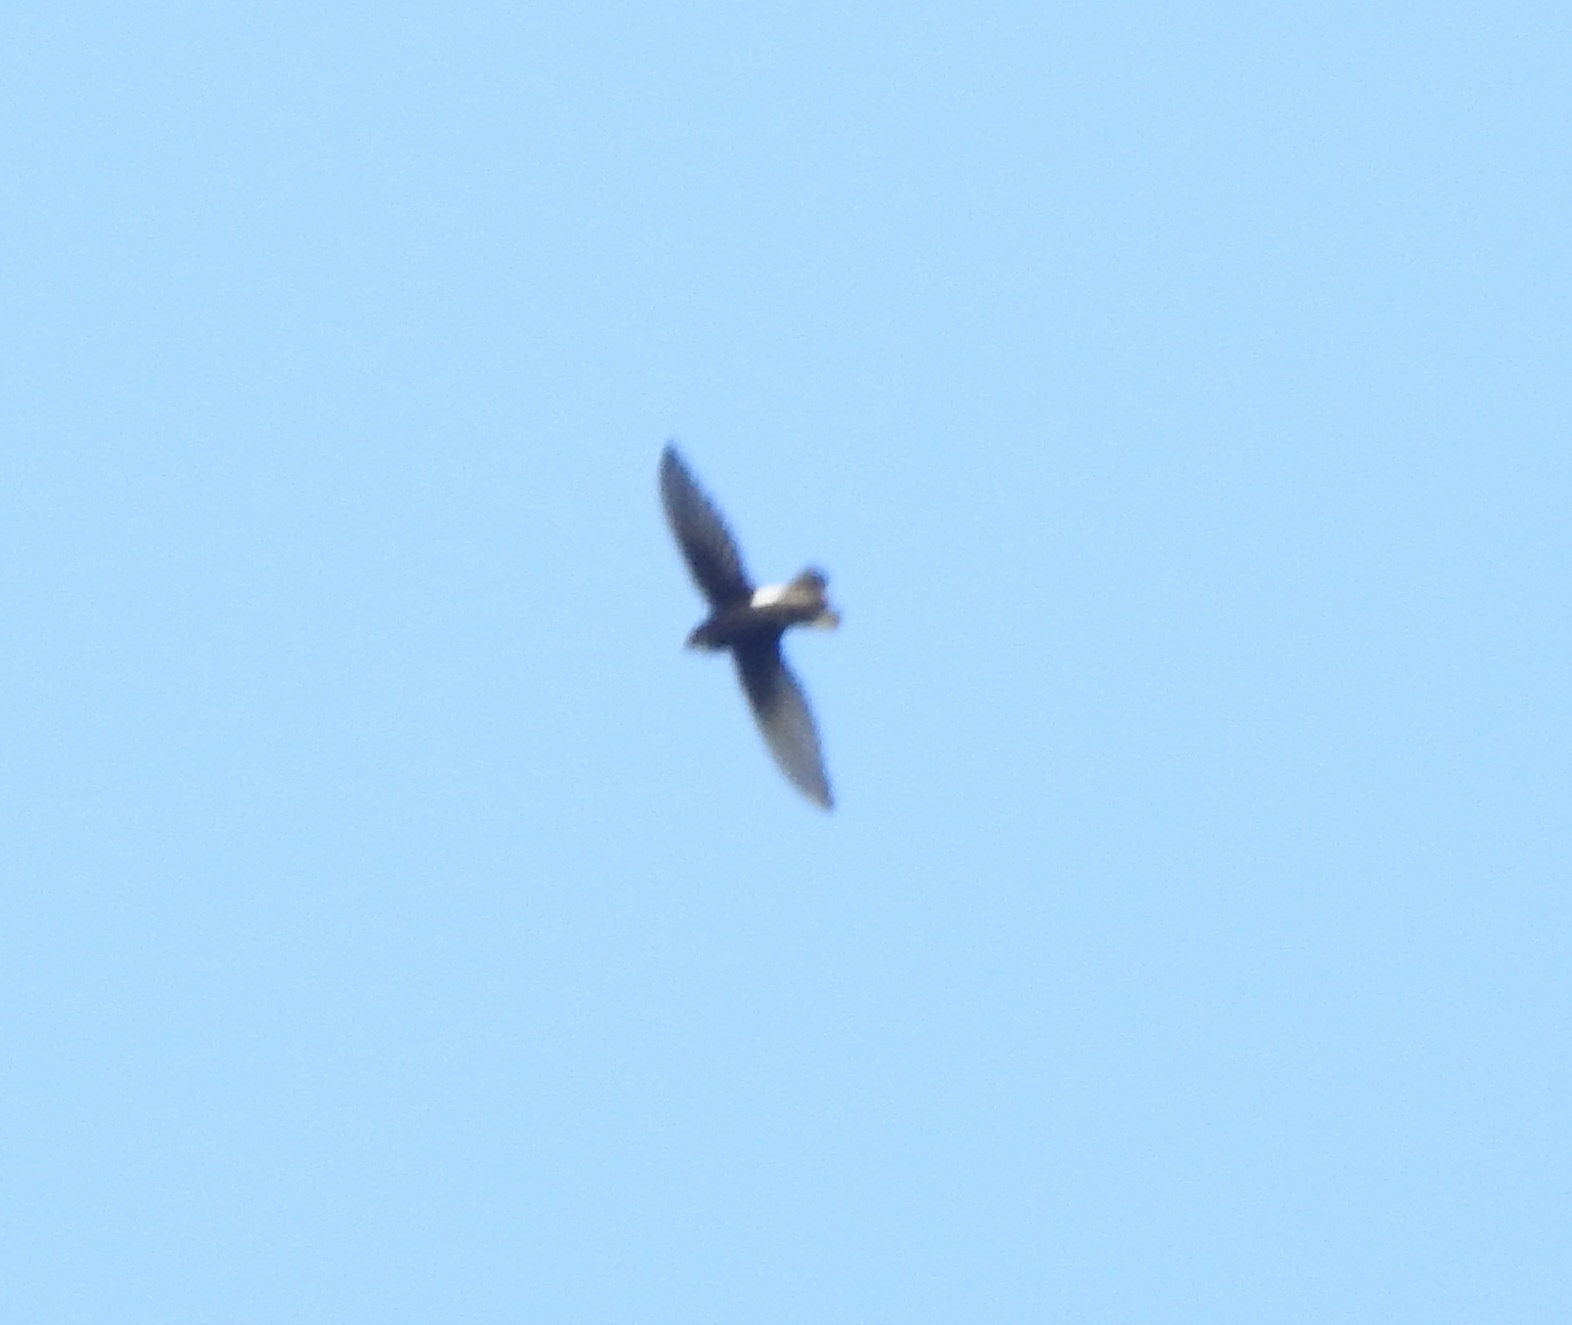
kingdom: Animalia
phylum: Chordata
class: Aves
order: Apodiformes
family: Apodidae
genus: Apus
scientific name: Apus affinis
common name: Little swift
